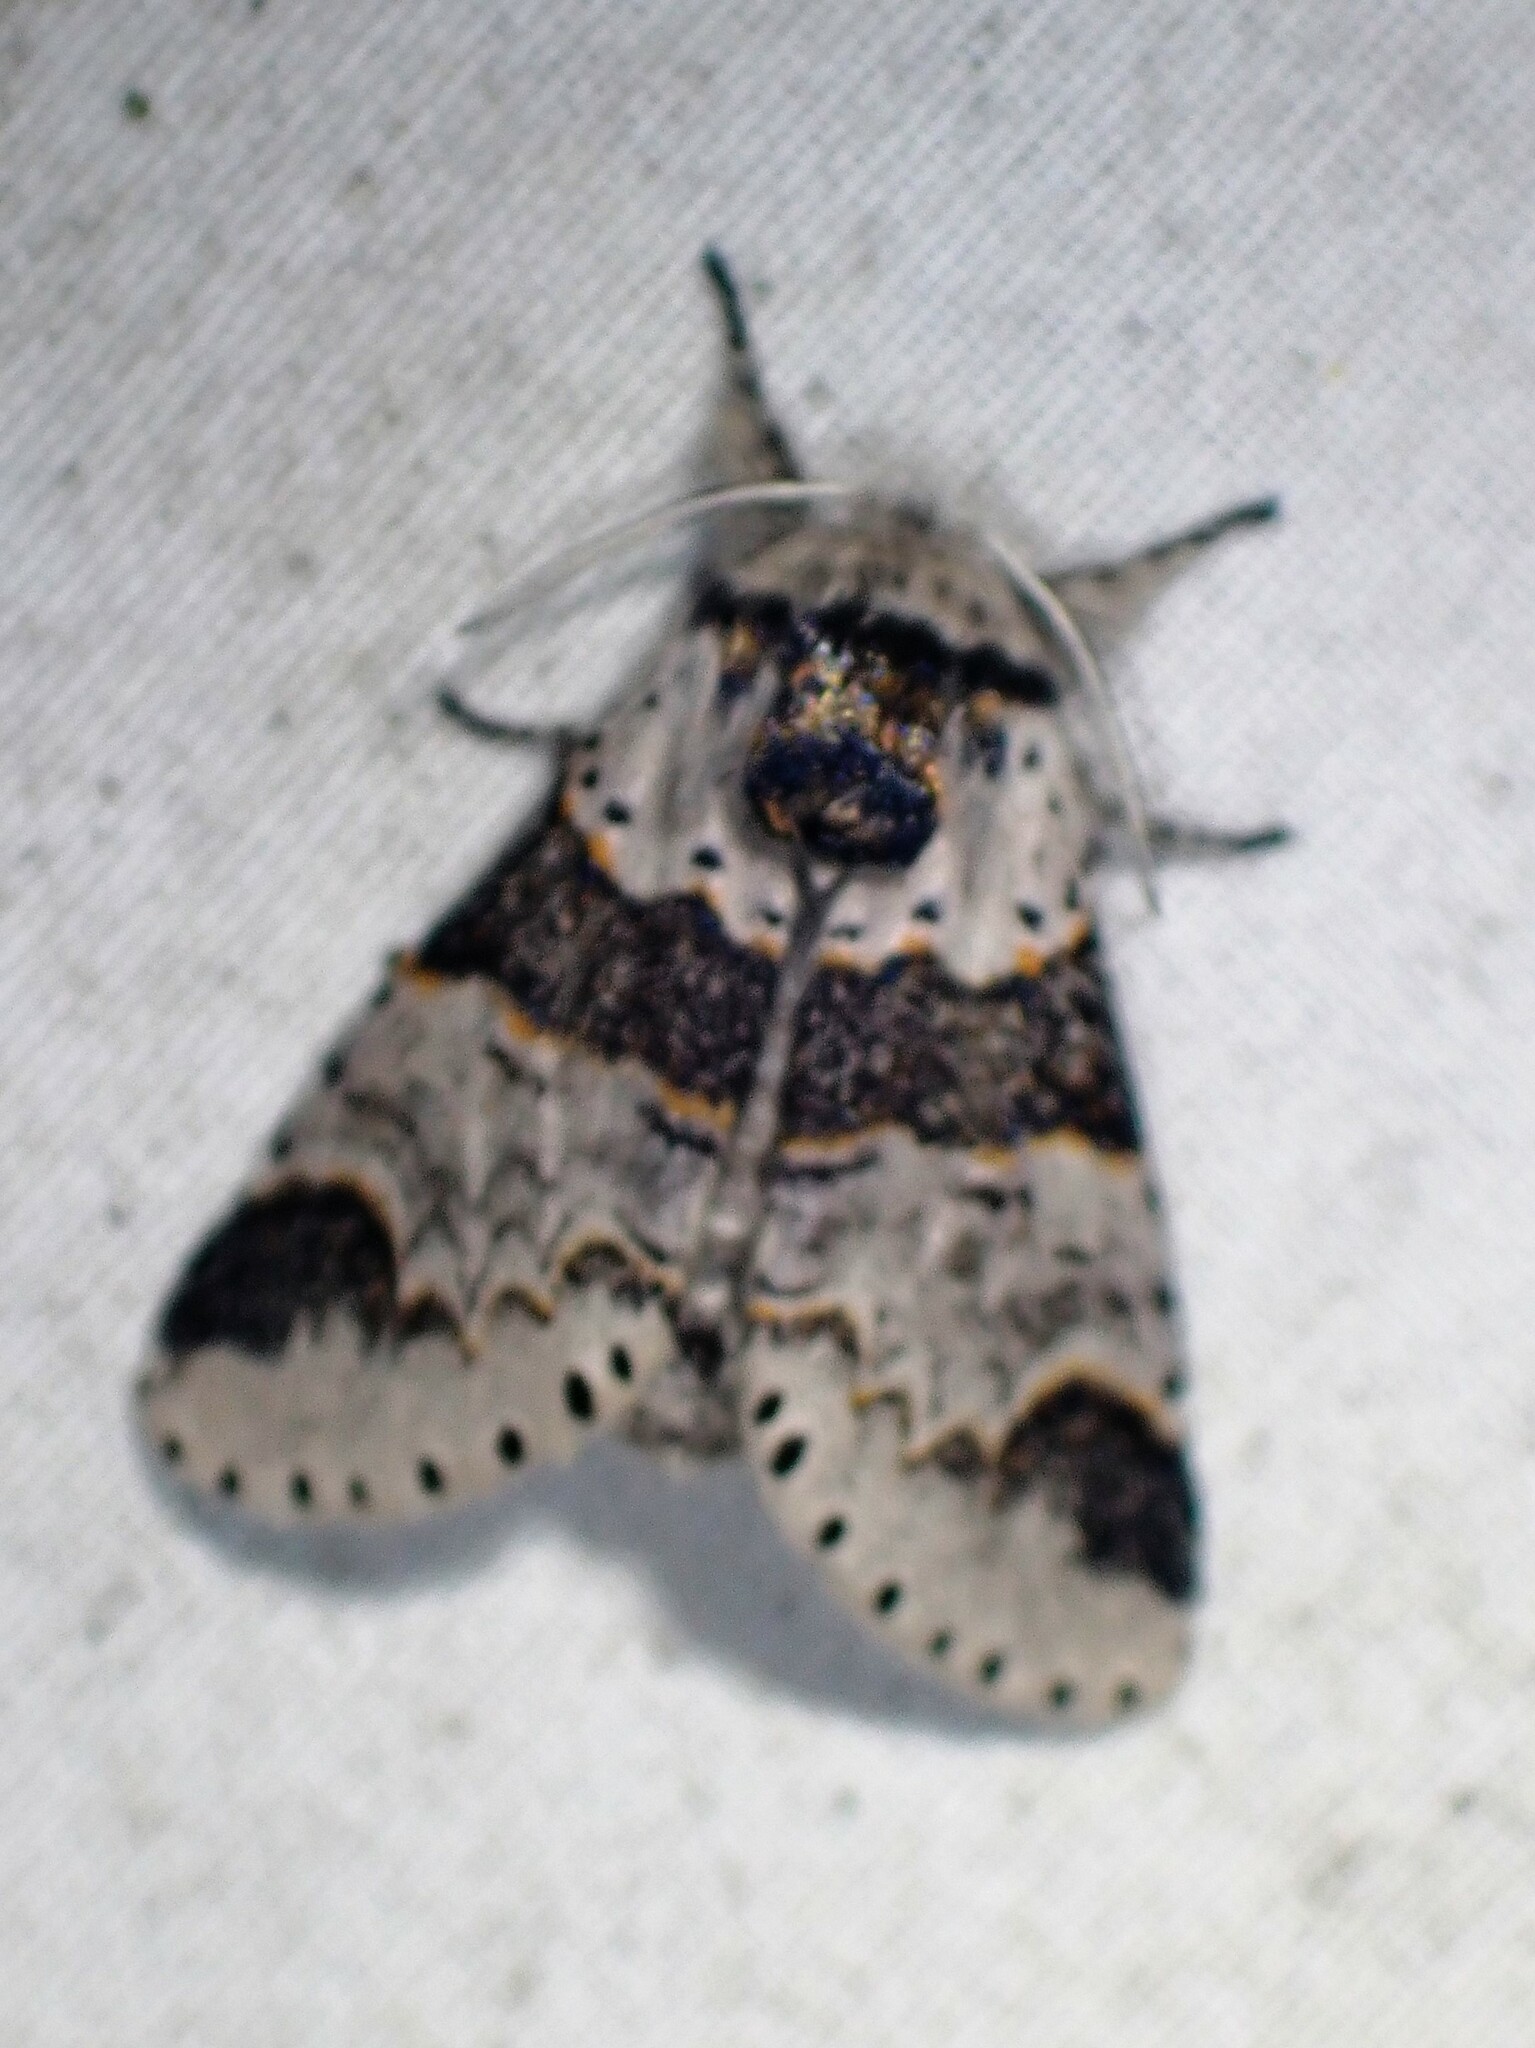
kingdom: Animalia
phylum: Arthropoda
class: Insecta
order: Lepidoptera
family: Notodontidae
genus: Furcula
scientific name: Furcula occidentalis
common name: Western furcula moth
